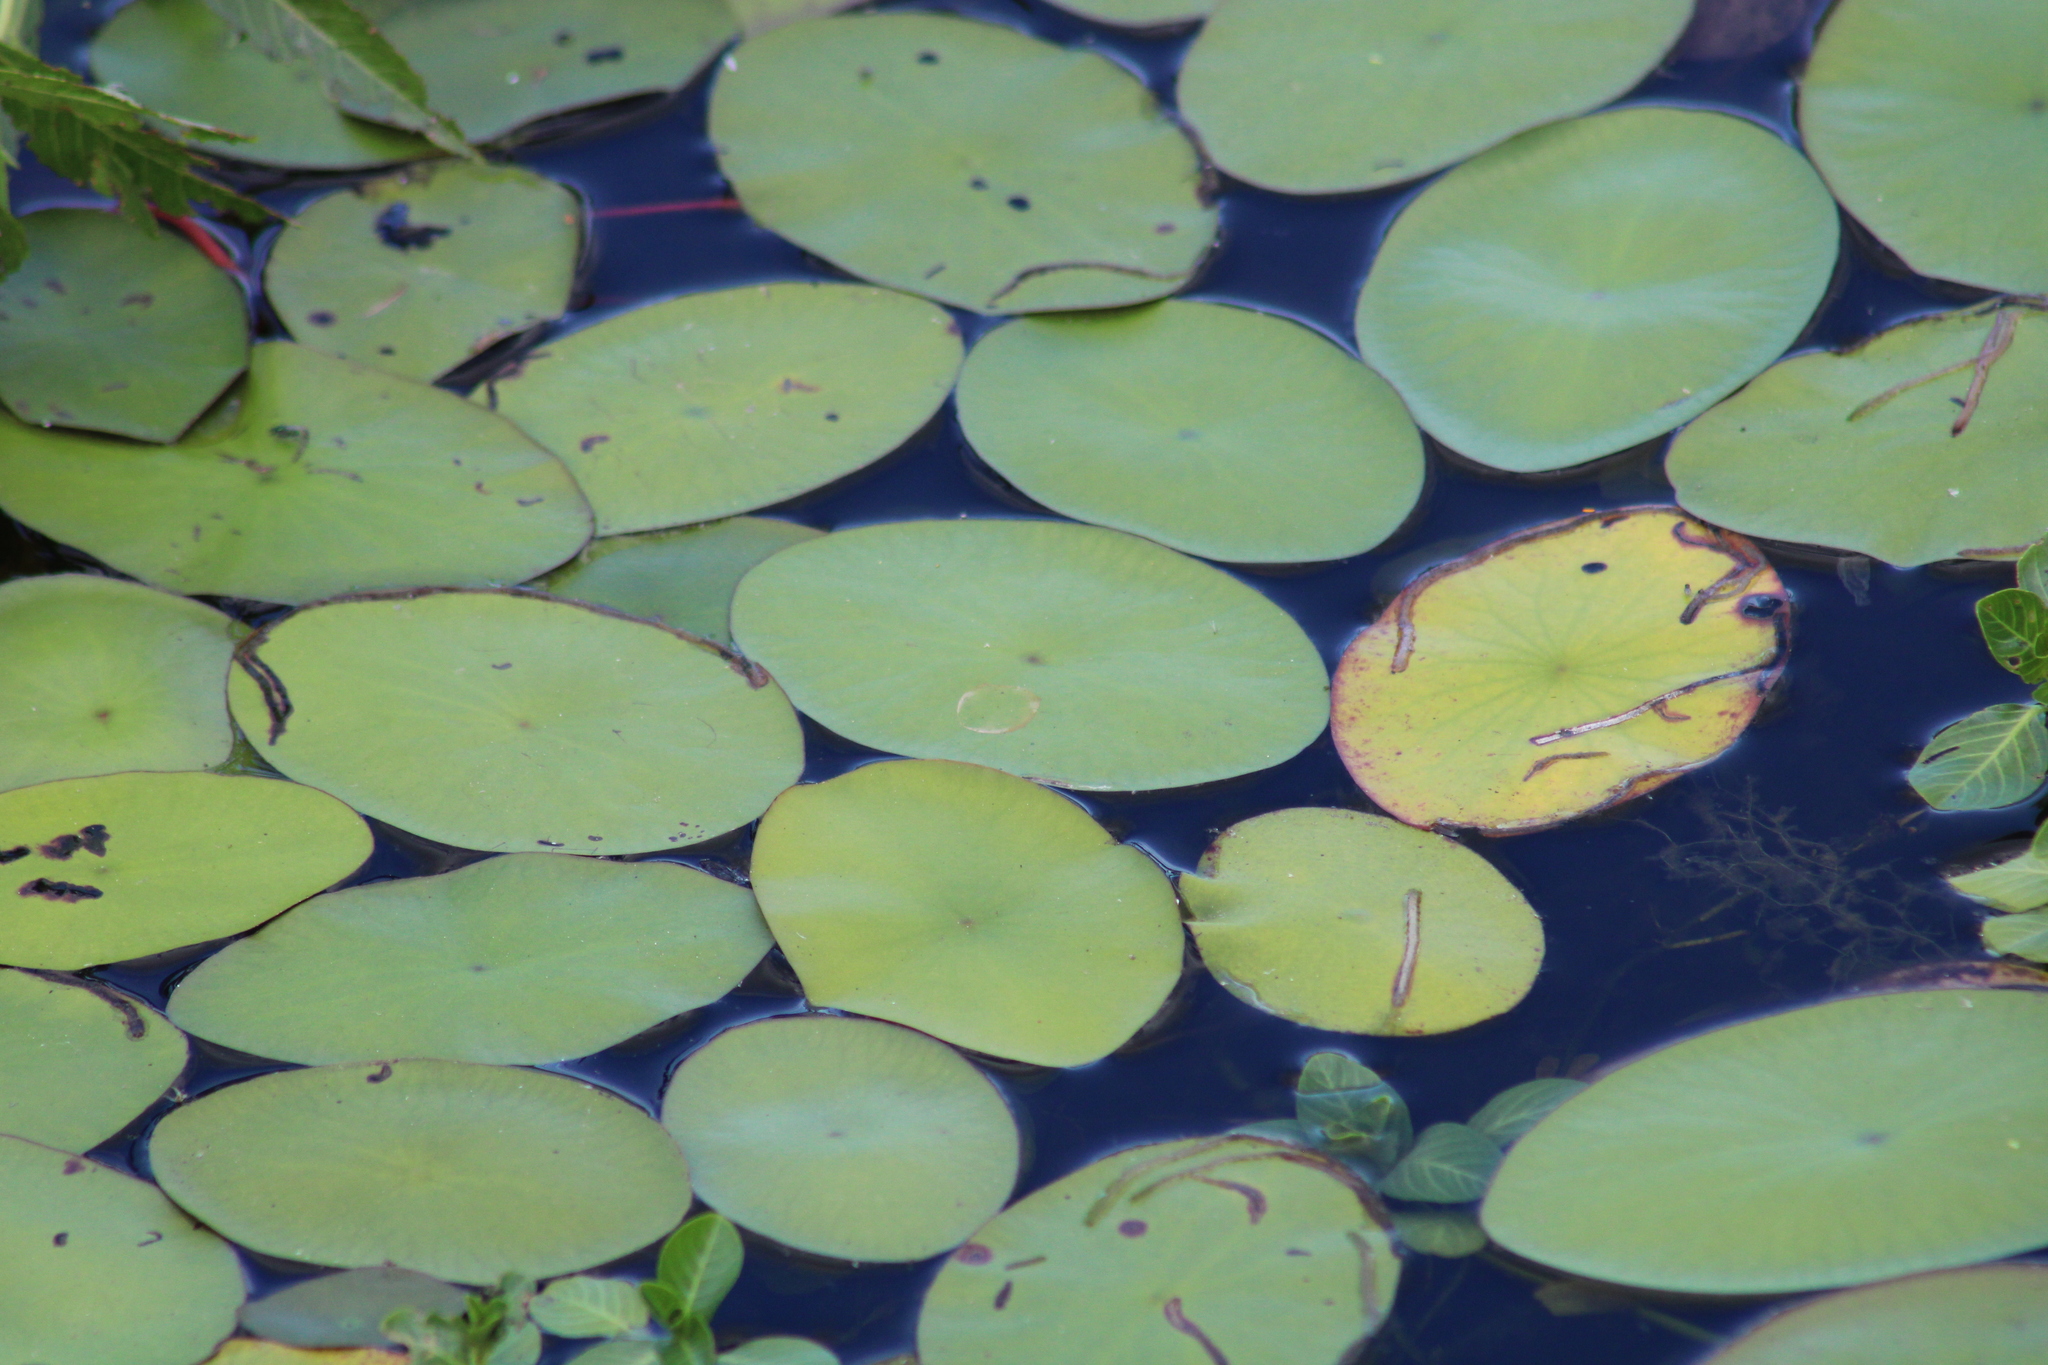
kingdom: Plantae
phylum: Tracheophyta
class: Magnoliopsida
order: Nymphaeales
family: Cabombaceae
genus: Brasenia
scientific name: Brasenia schreberi
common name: Water-shield
